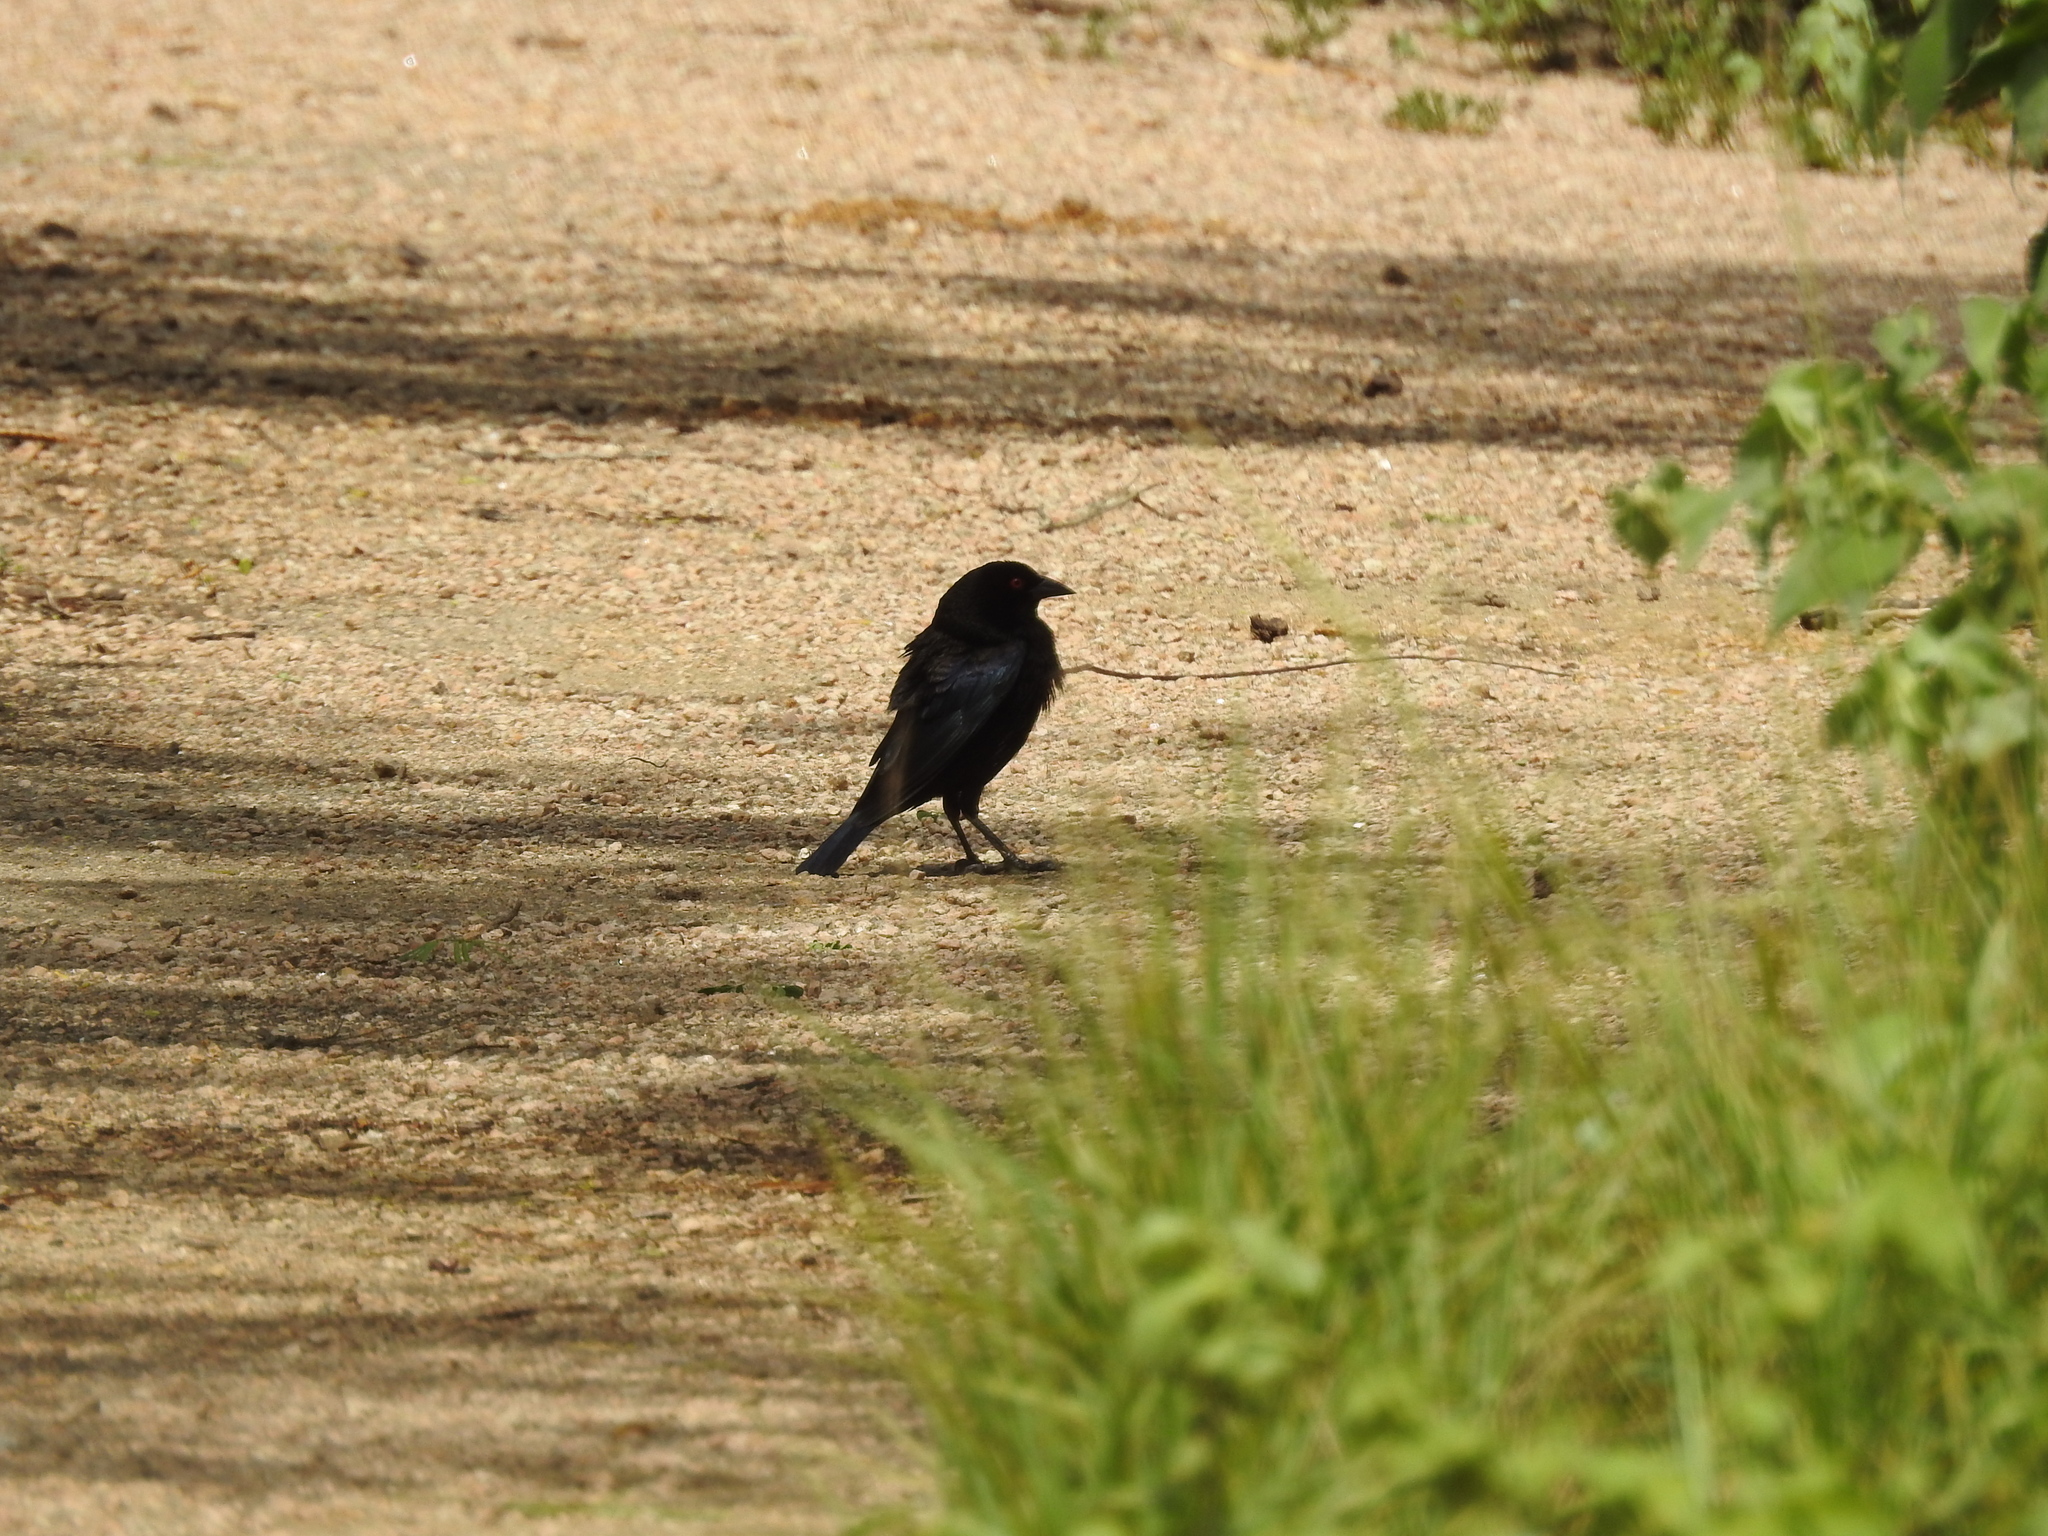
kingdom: Animalia
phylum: Chordata
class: Aves
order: Passeriformes
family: Icteridae
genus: Molothrus
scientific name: Molothrus aeneus
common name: Bronzed cowbird
